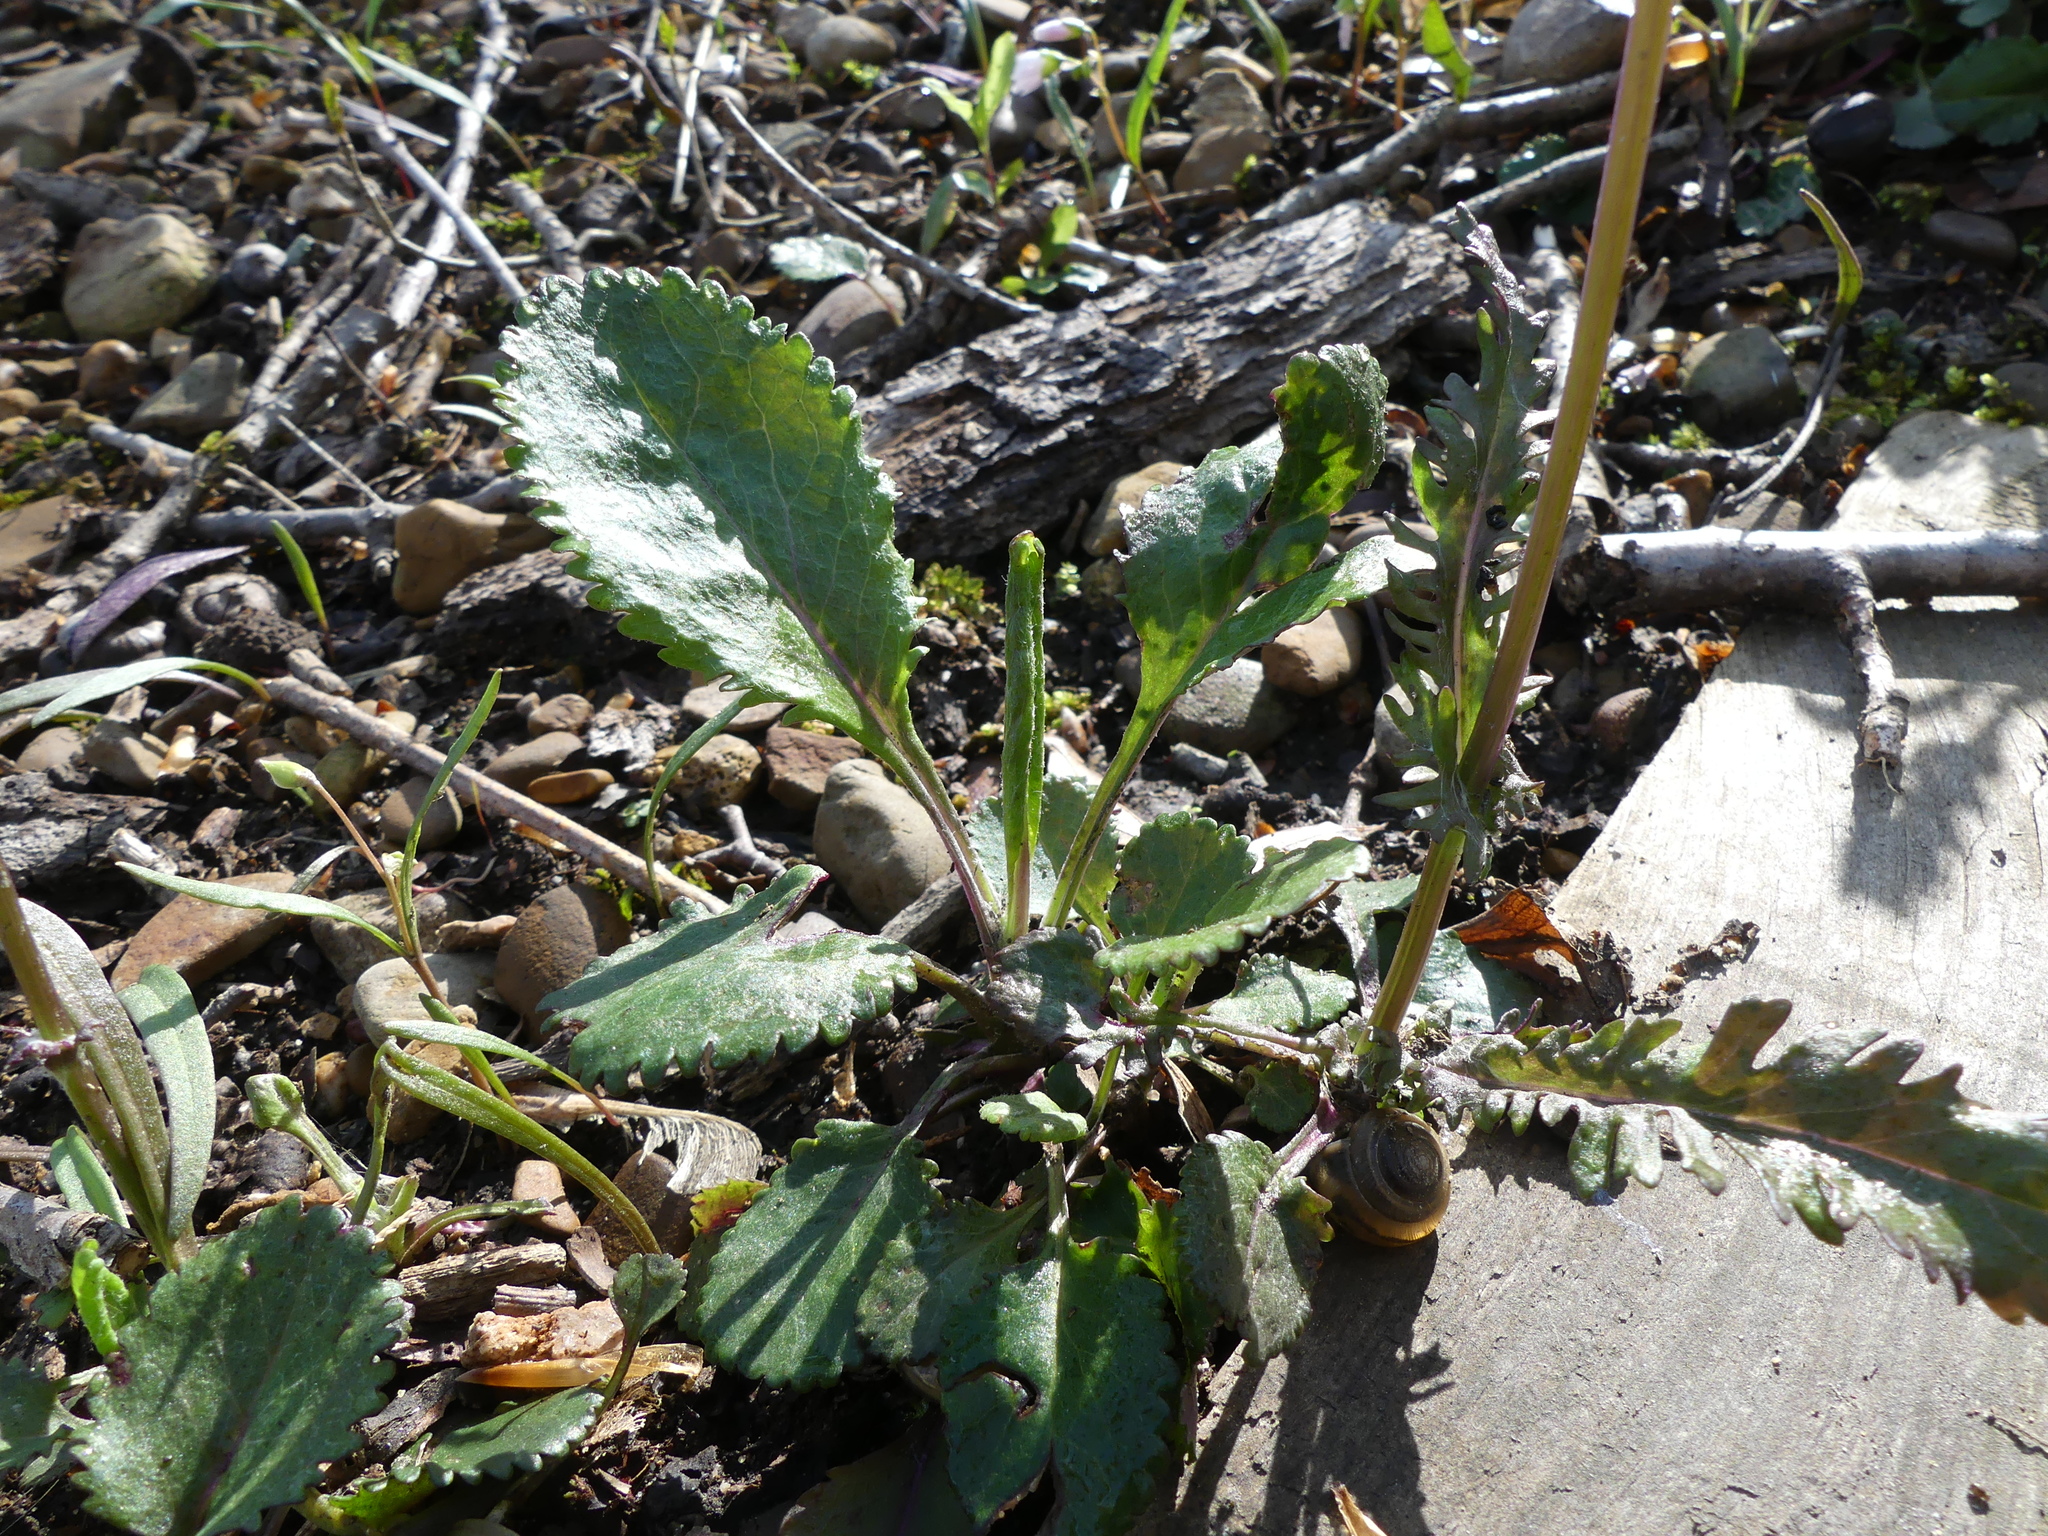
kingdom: Plantae
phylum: Tracheophyta
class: Magnoliopsida
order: Asterales
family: Asteraceae
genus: Packera
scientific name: Packera aurea
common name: Golden groundsel
